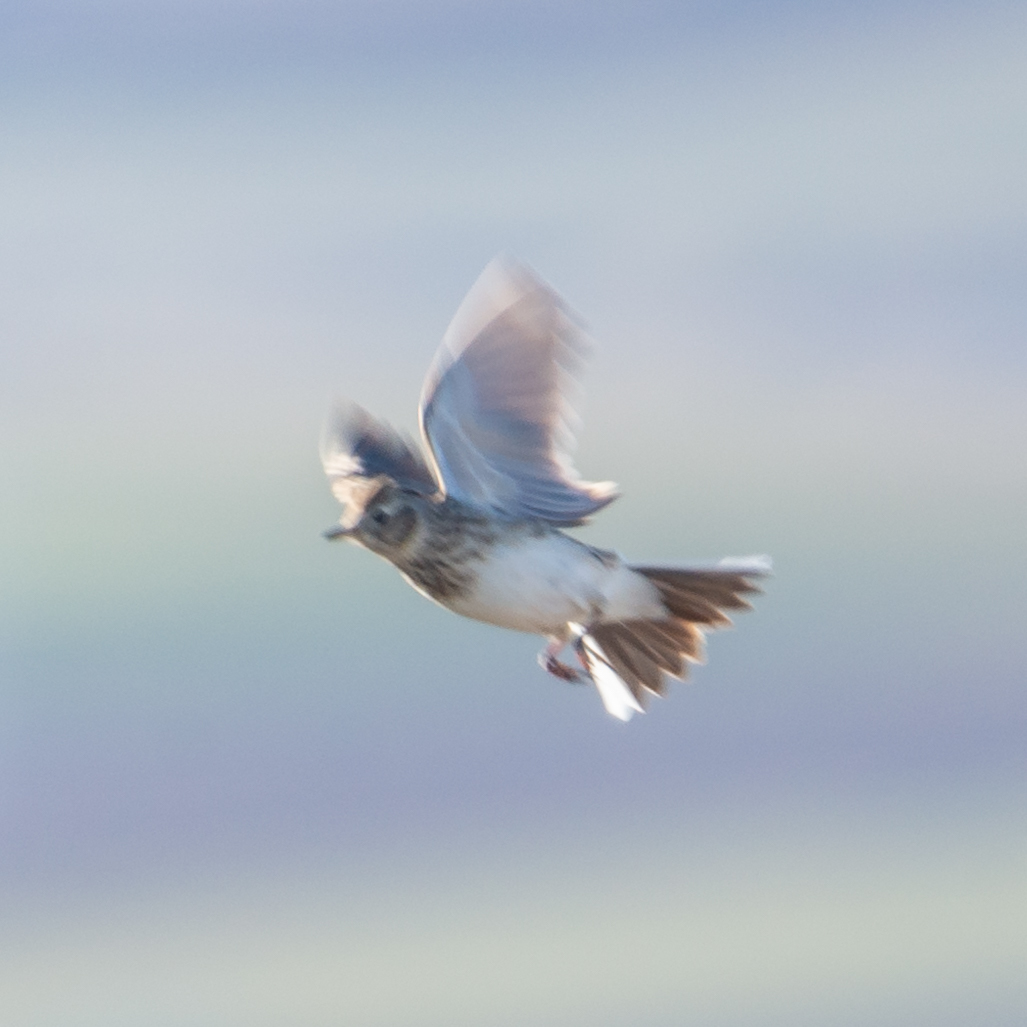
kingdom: Animalia
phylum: Chordata
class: Aves
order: Passeriformes
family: Alaudidae
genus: Alauda
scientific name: Alauda arvensis
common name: Eurasian skylark
